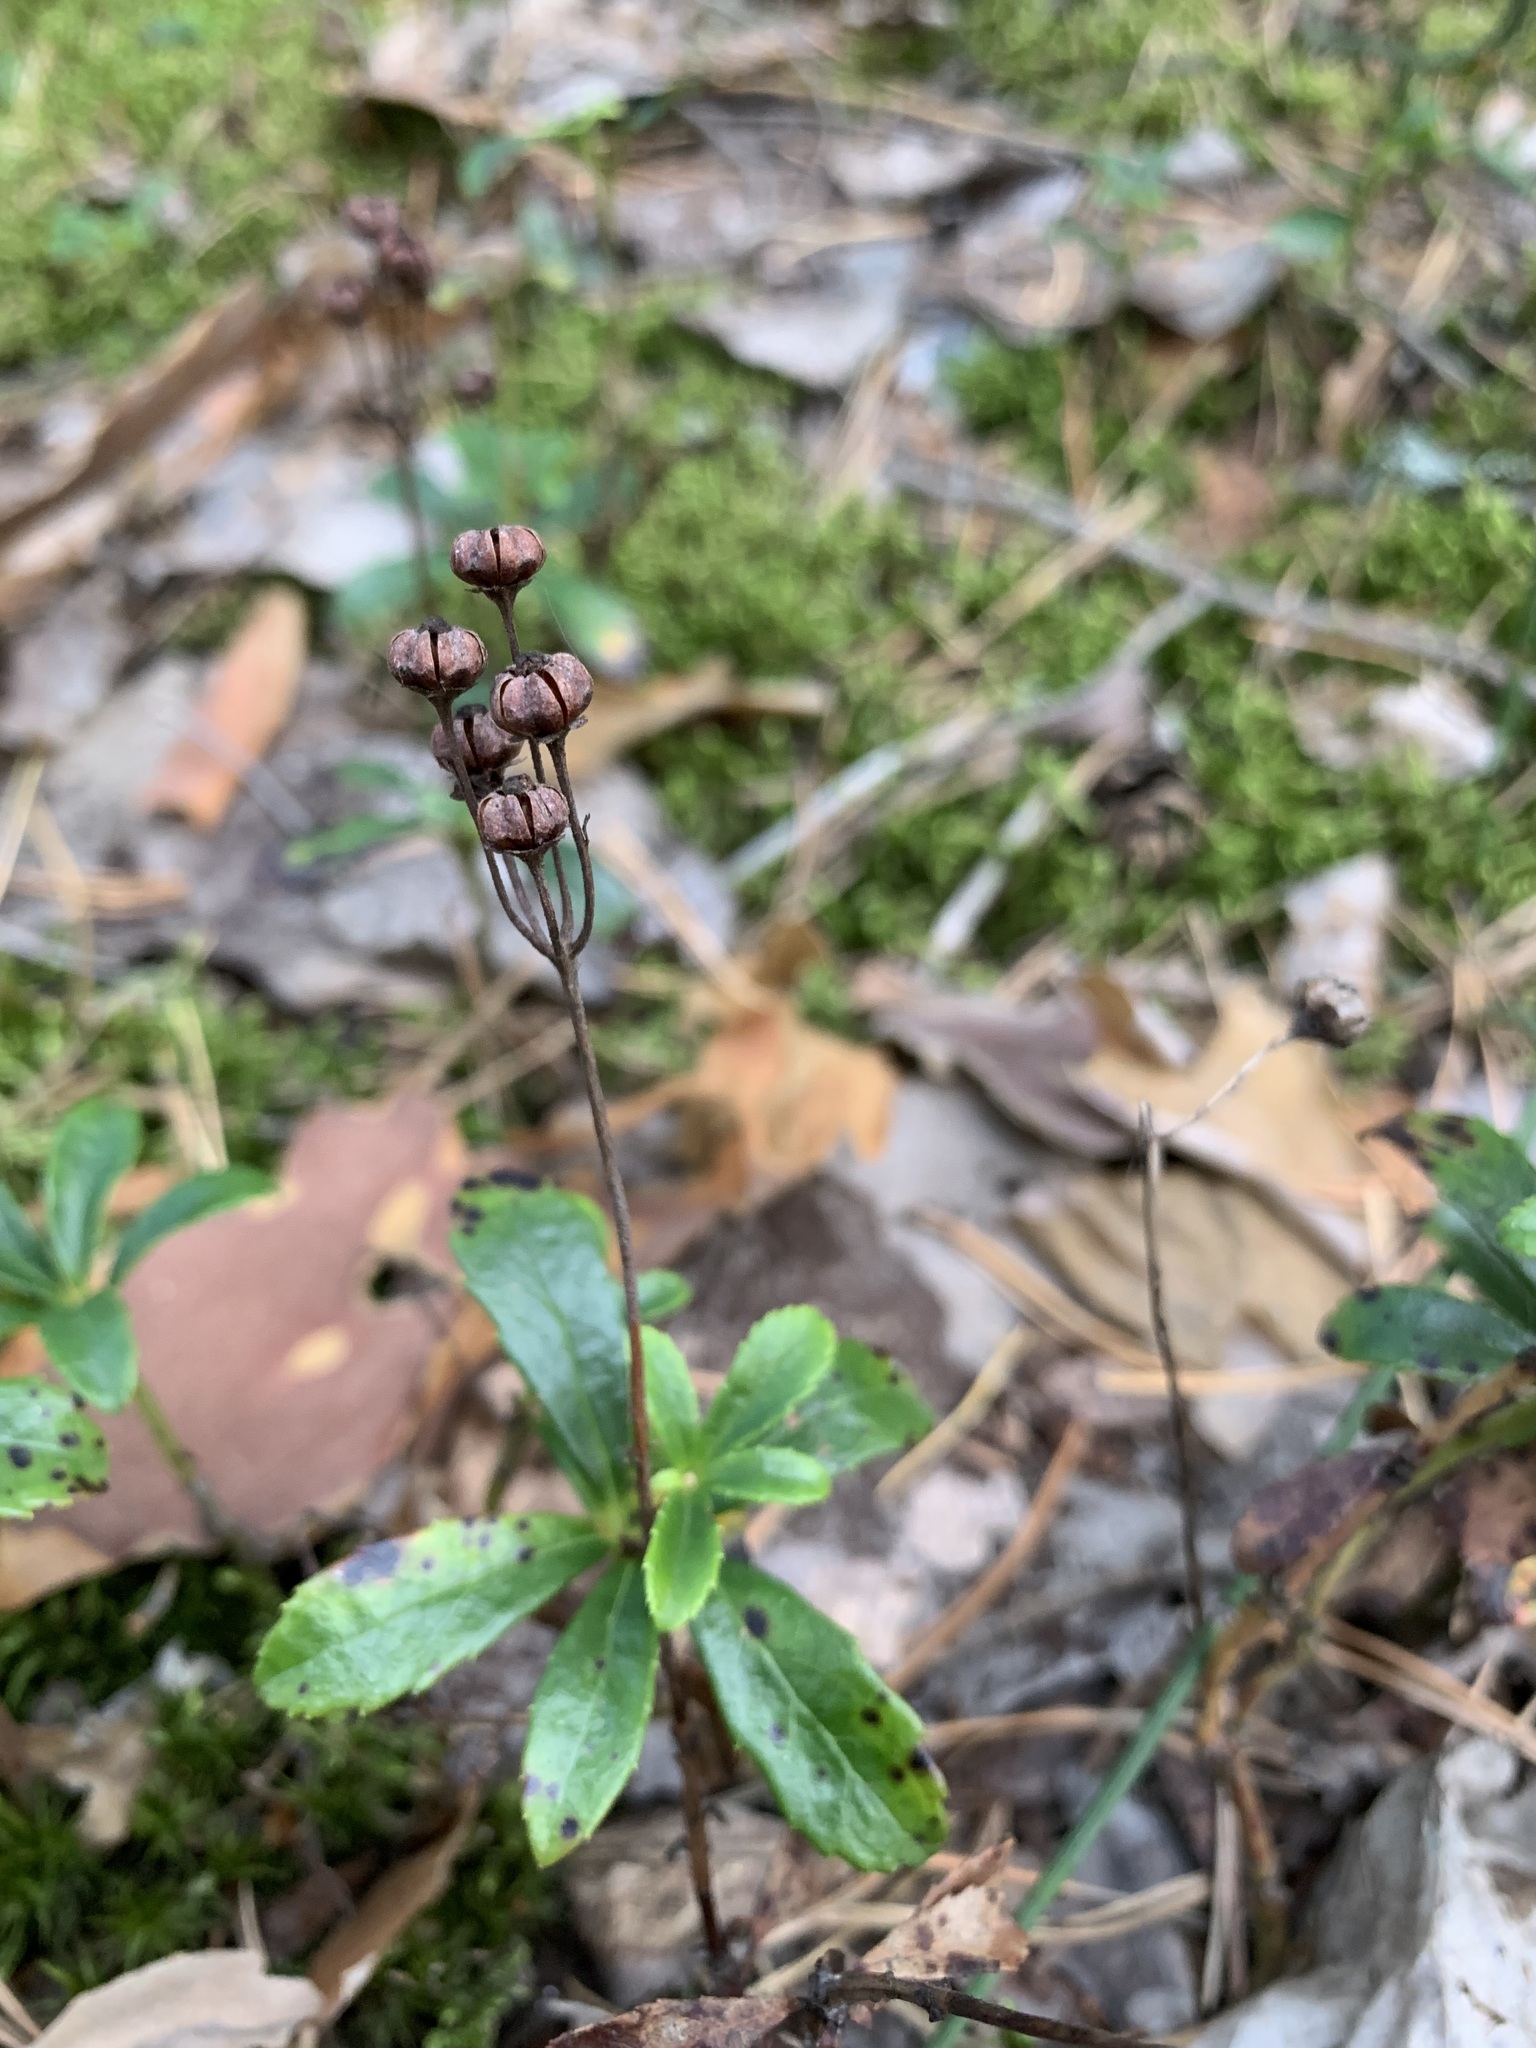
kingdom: Plantae
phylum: Tracheophyta
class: Magnoliopsida
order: Ericales
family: Ericaceae
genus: Chimaphila
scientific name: Chimaphila umbellata
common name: Pipsissewa
